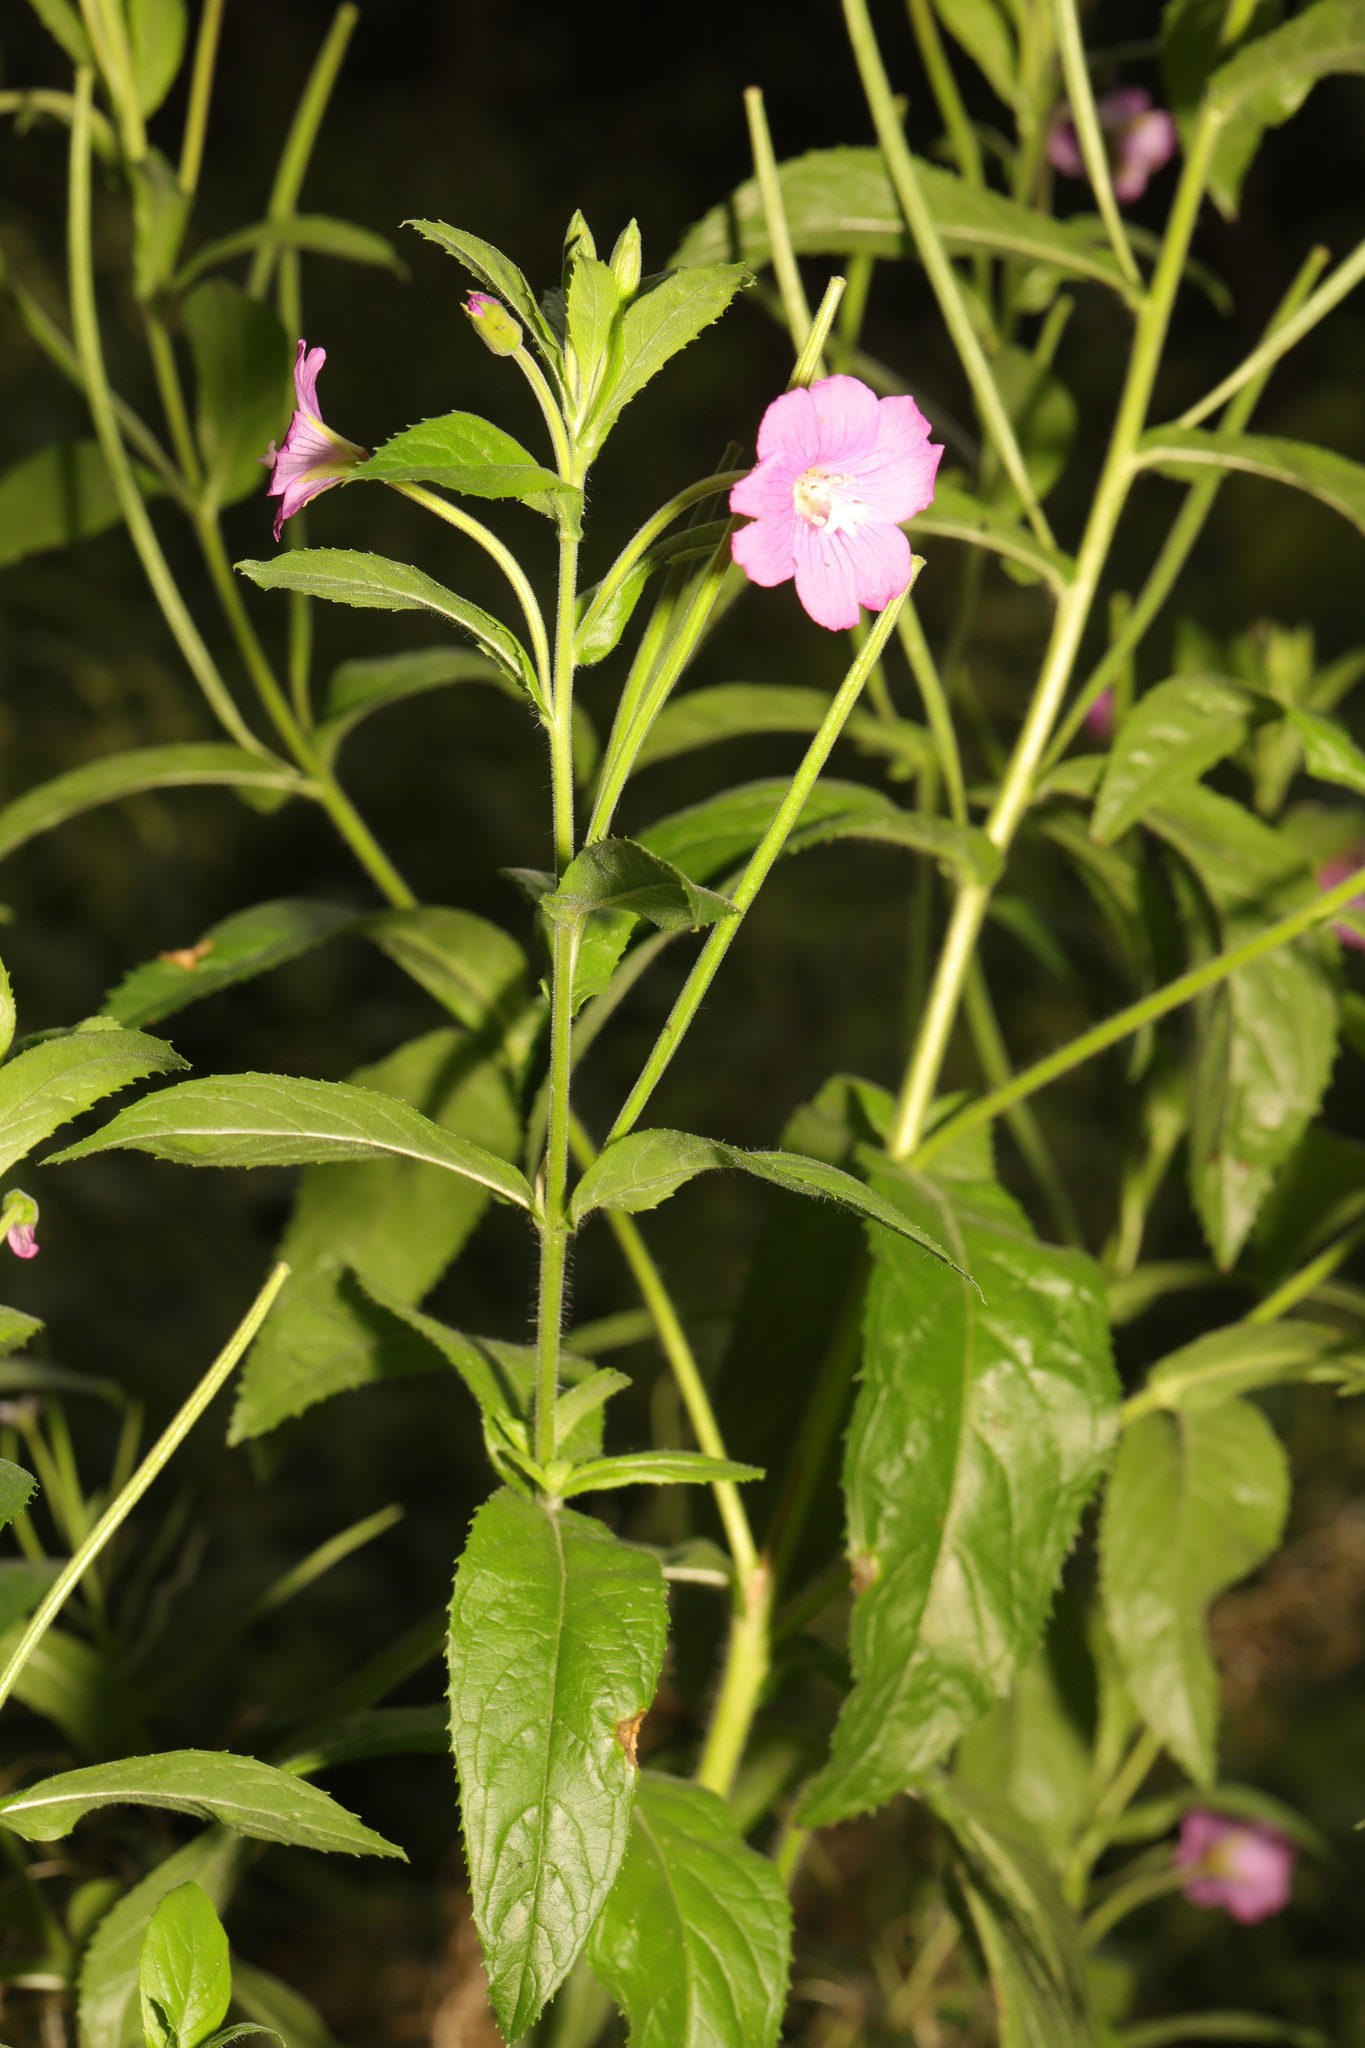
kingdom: Plantae
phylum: Tracheophyta
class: Magnoliopsida
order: Myrtales
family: Onagraceae
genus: Epilobium
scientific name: Epilobium hirsutum
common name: Great willowherb
